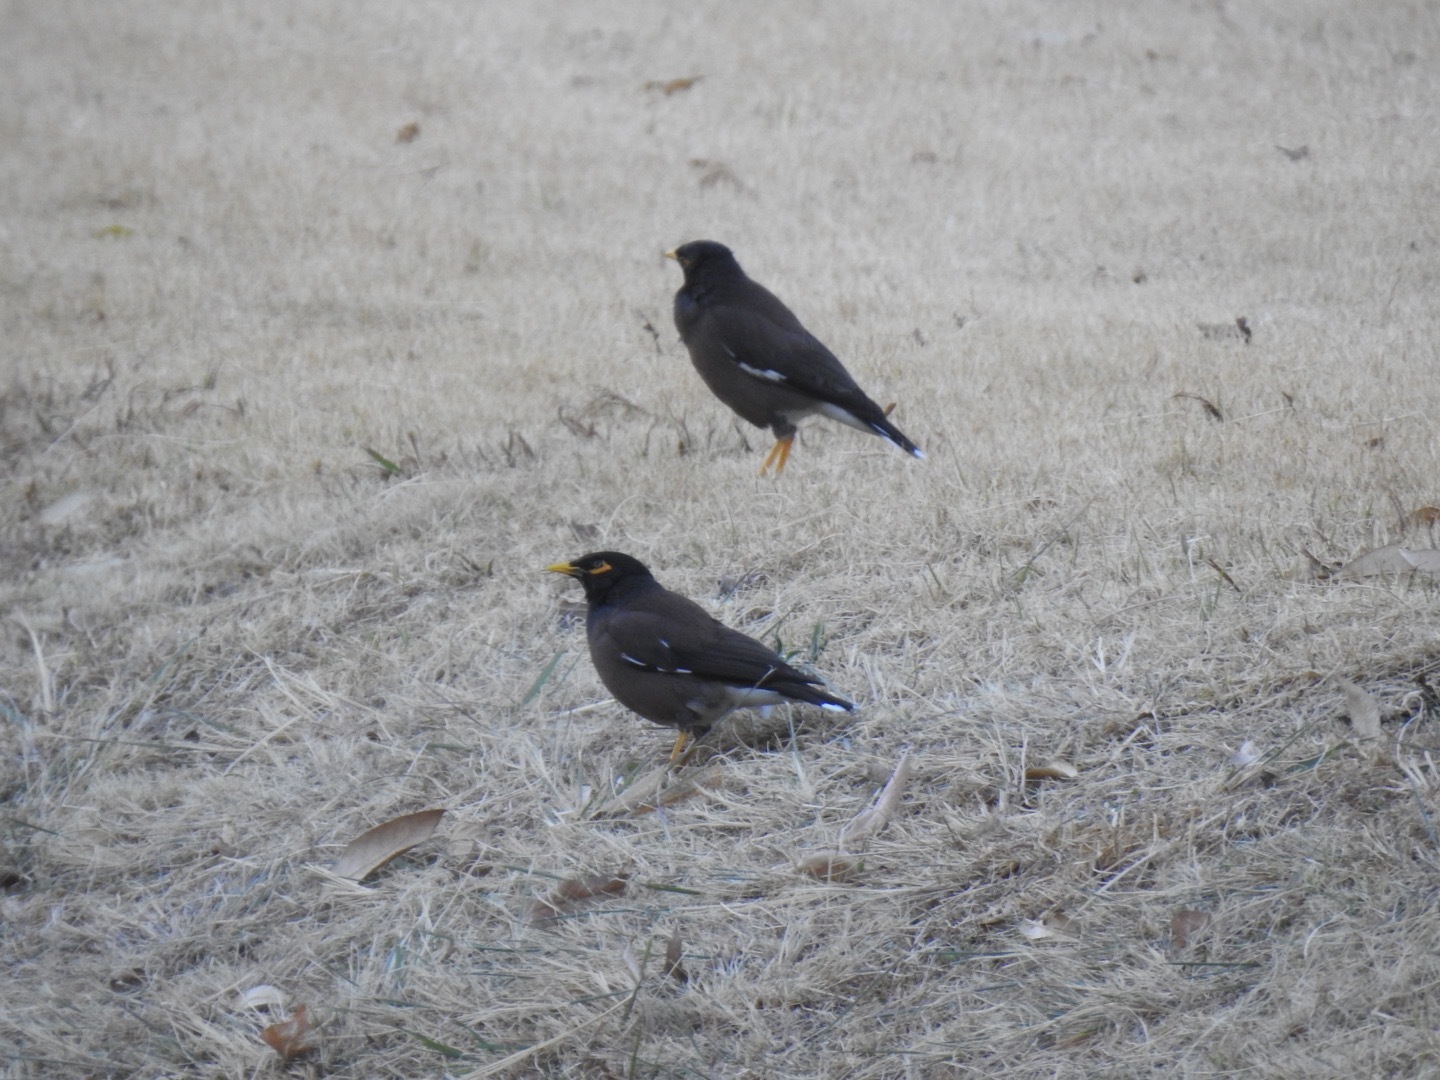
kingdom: Animalia
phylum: Chordata
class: Aves
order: Passeriformes
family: Sturnidae
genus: Acridotheres
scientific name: Acridotheres tristis
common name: Common myna
